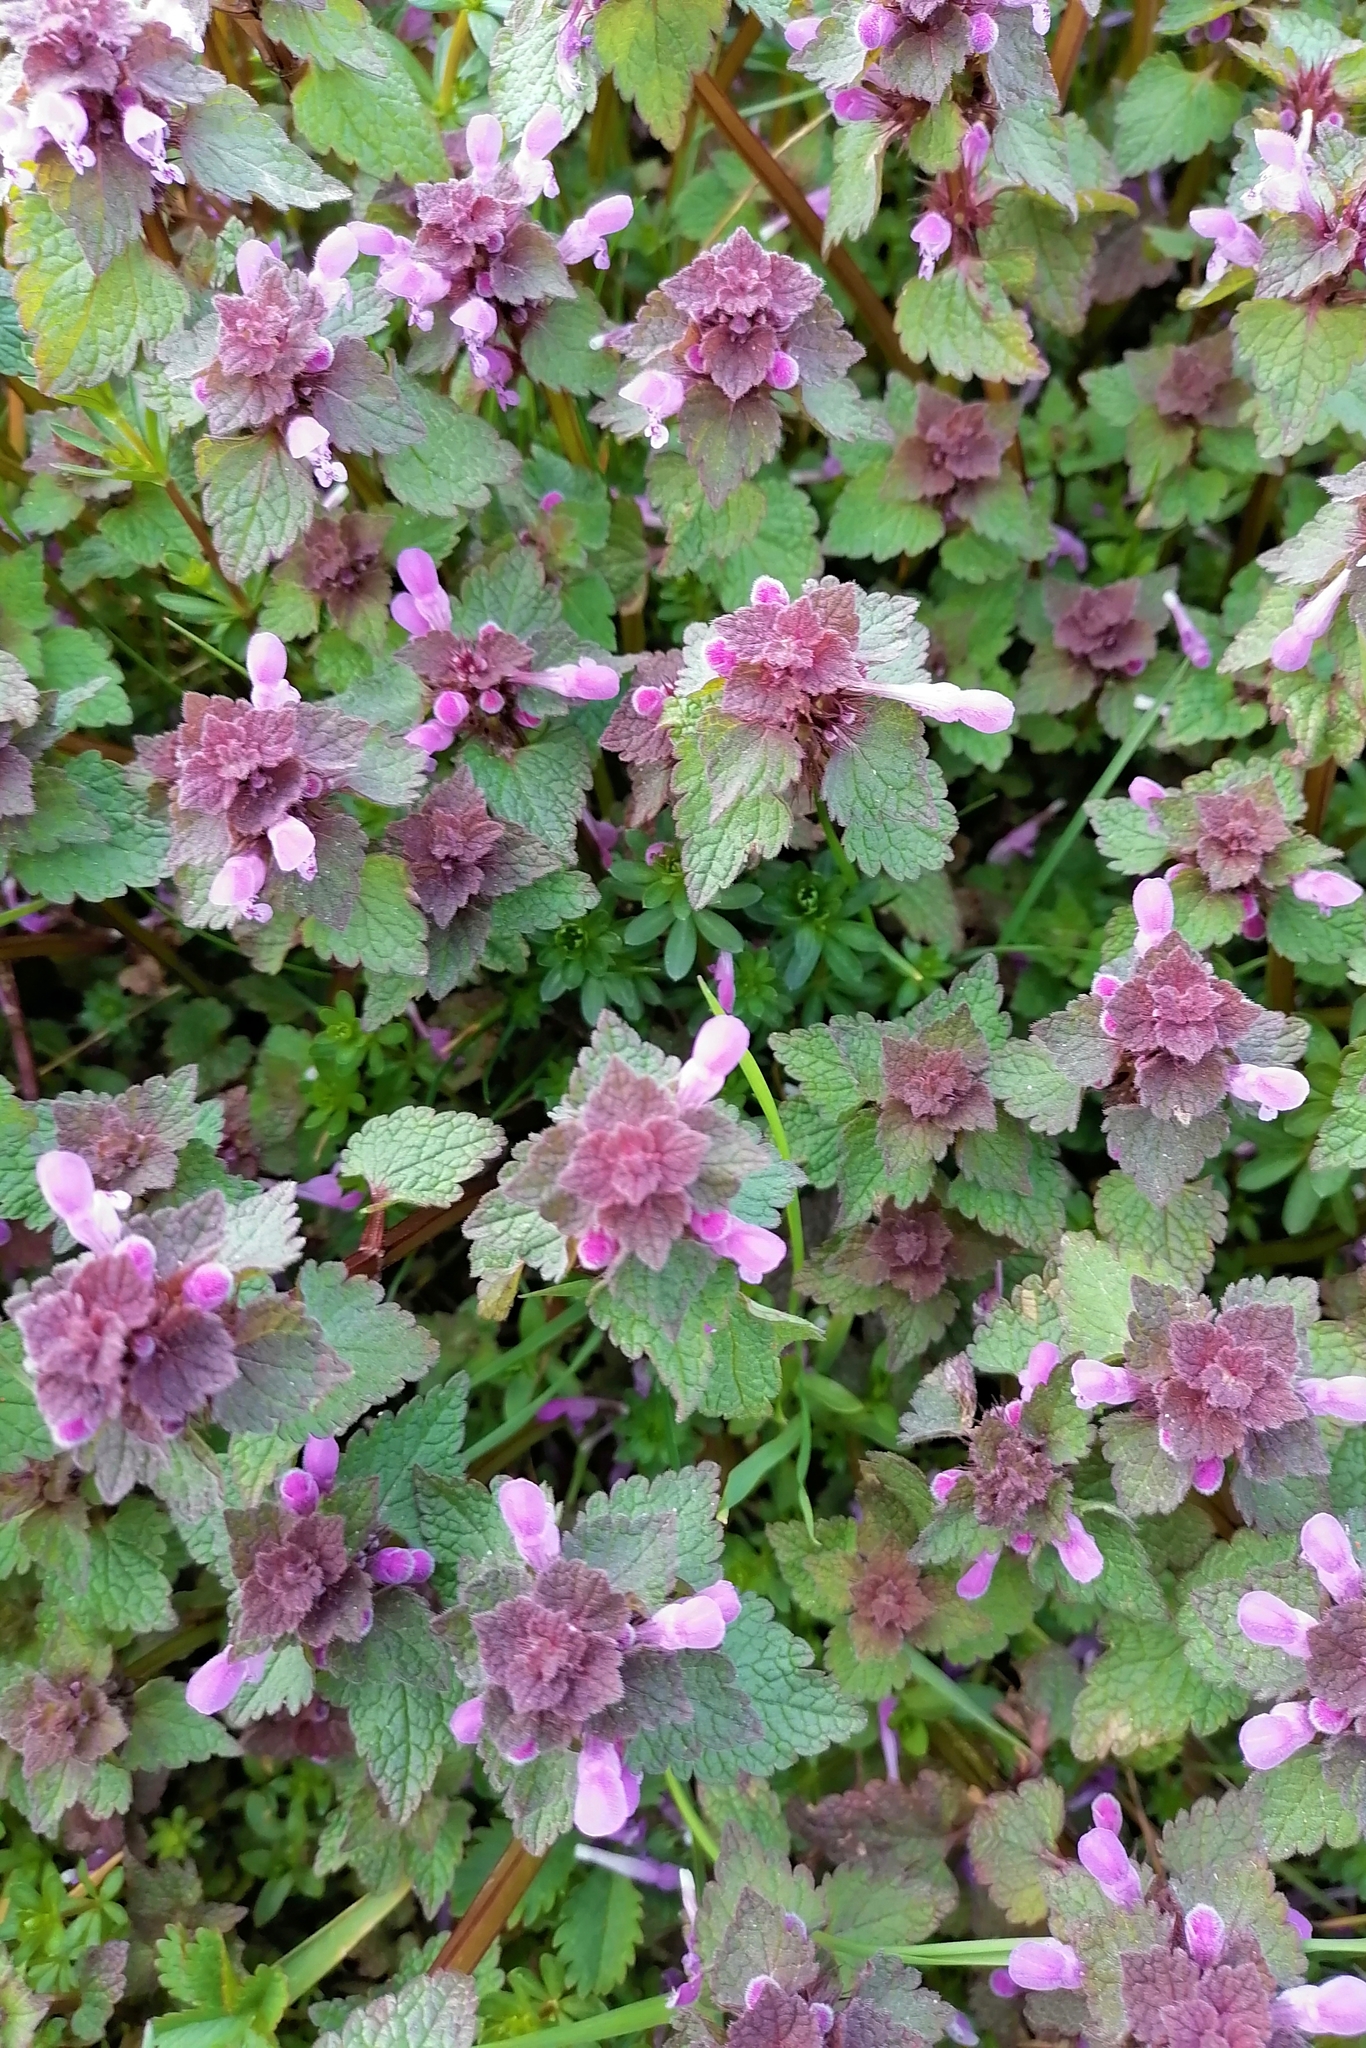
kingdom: Plantae
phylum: Tracheophyta
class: Magnoliopsida
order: Lamiales
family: Lamiaceae
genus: Lamium
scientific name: Lamium purpureum
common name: Red dead-nettle
